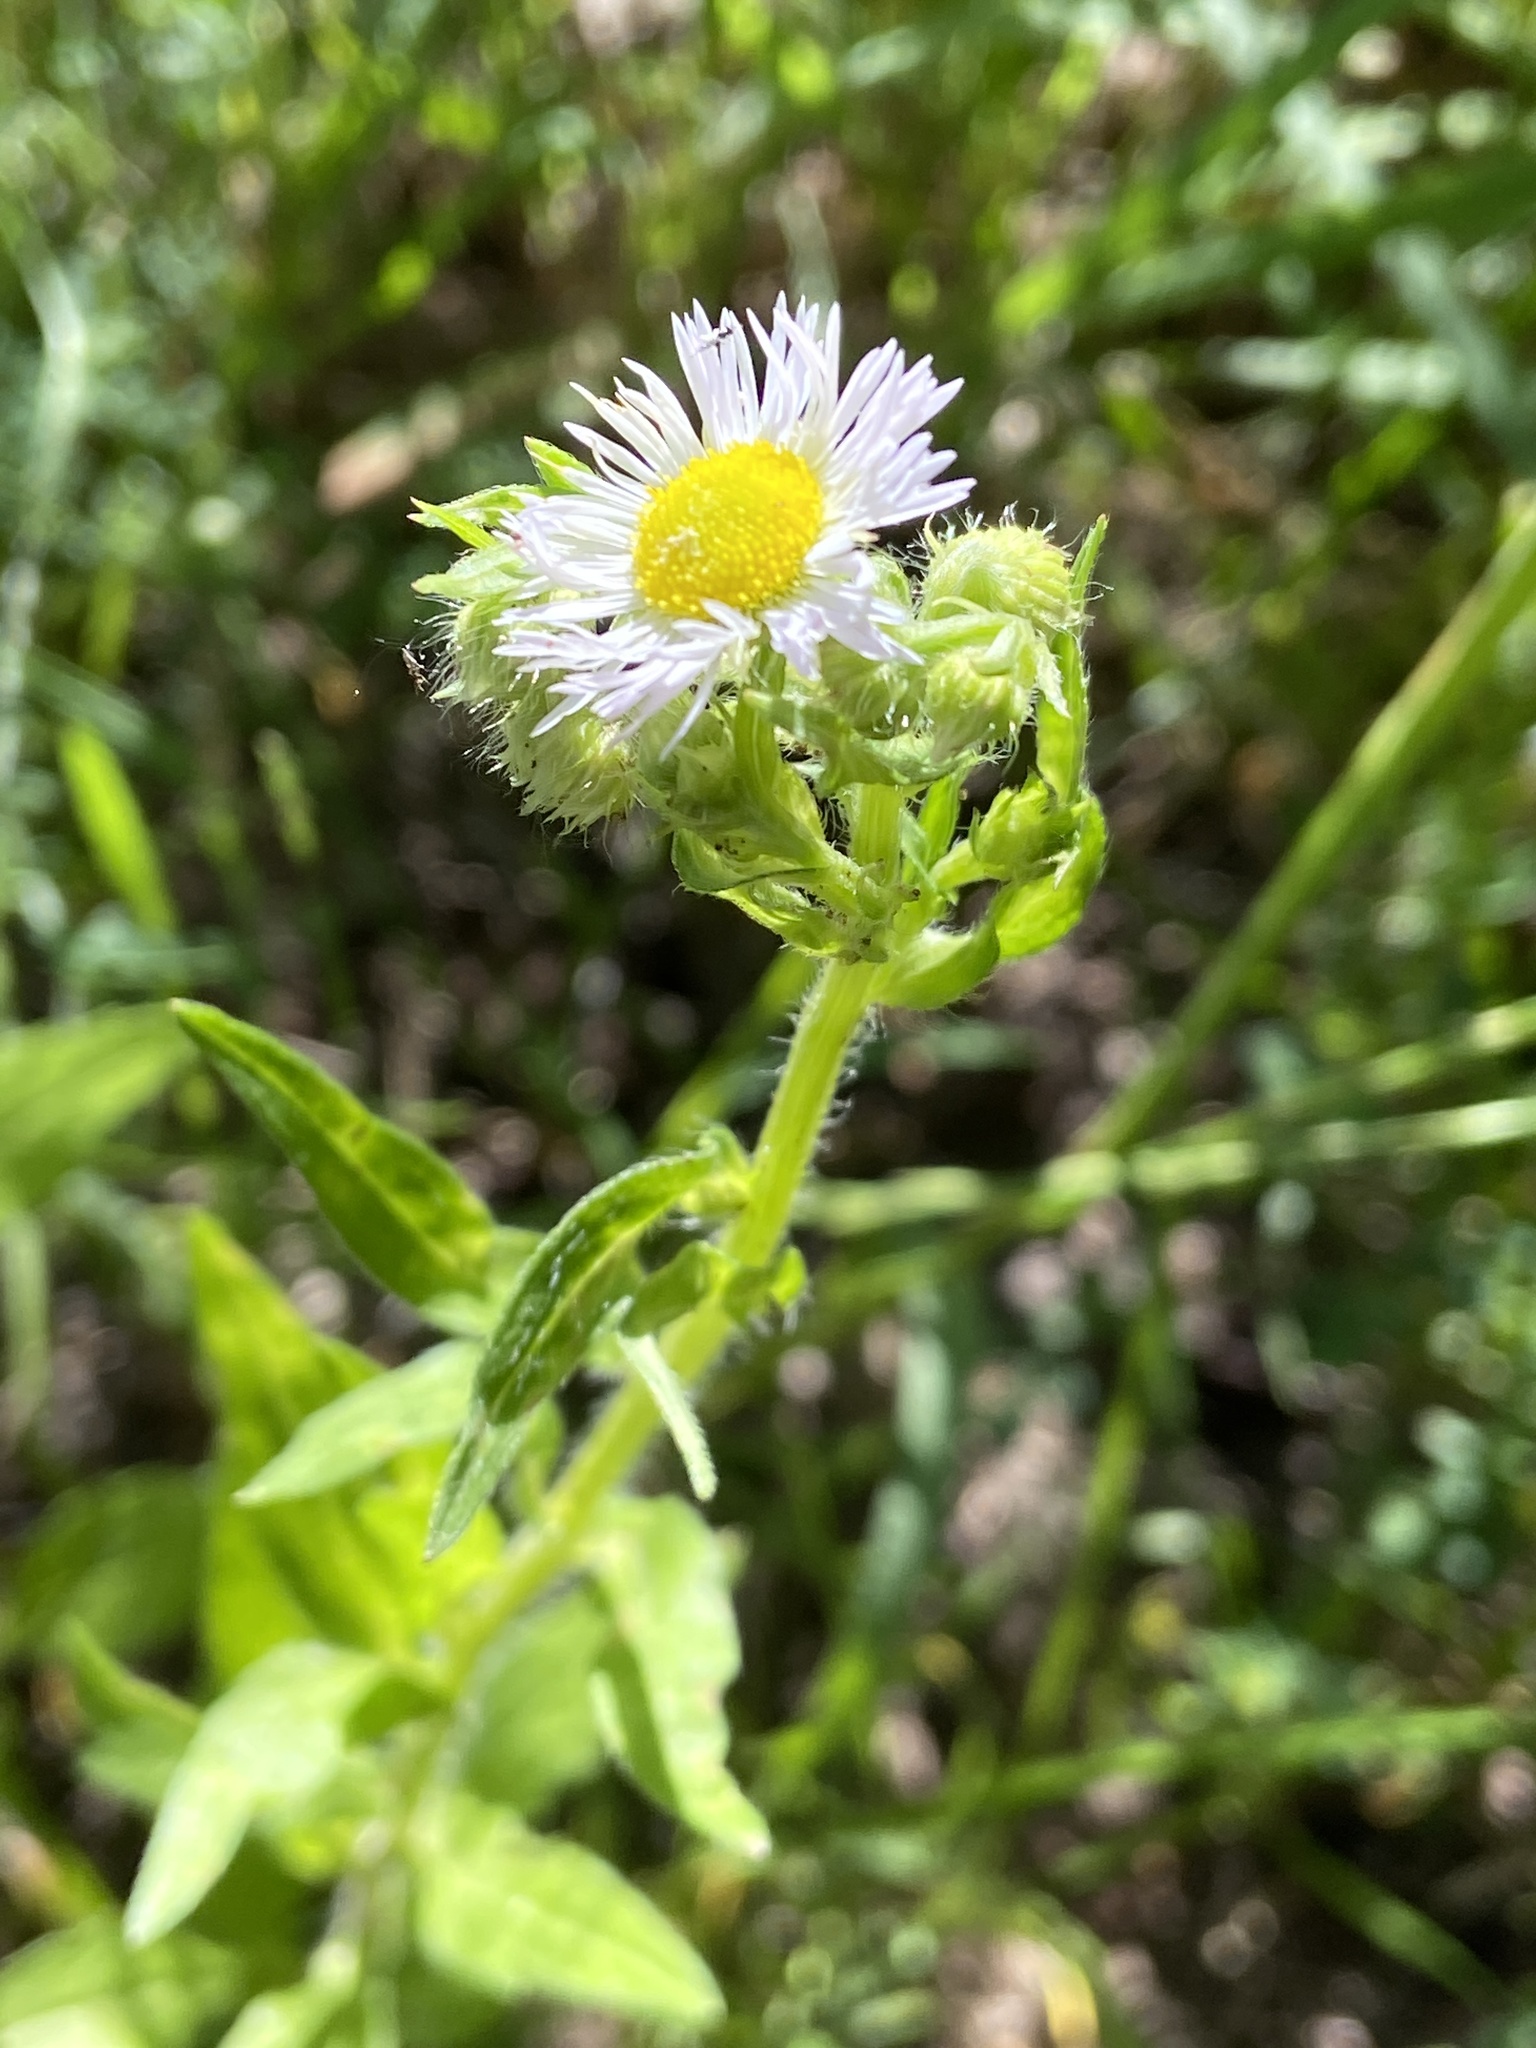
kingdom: Plantae
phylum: Tracheophyta
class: Magnoliopsida
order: Asterales
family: Asteraceae
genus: Erigeron
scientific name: Erigeron annuus
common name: Tall fleabane
